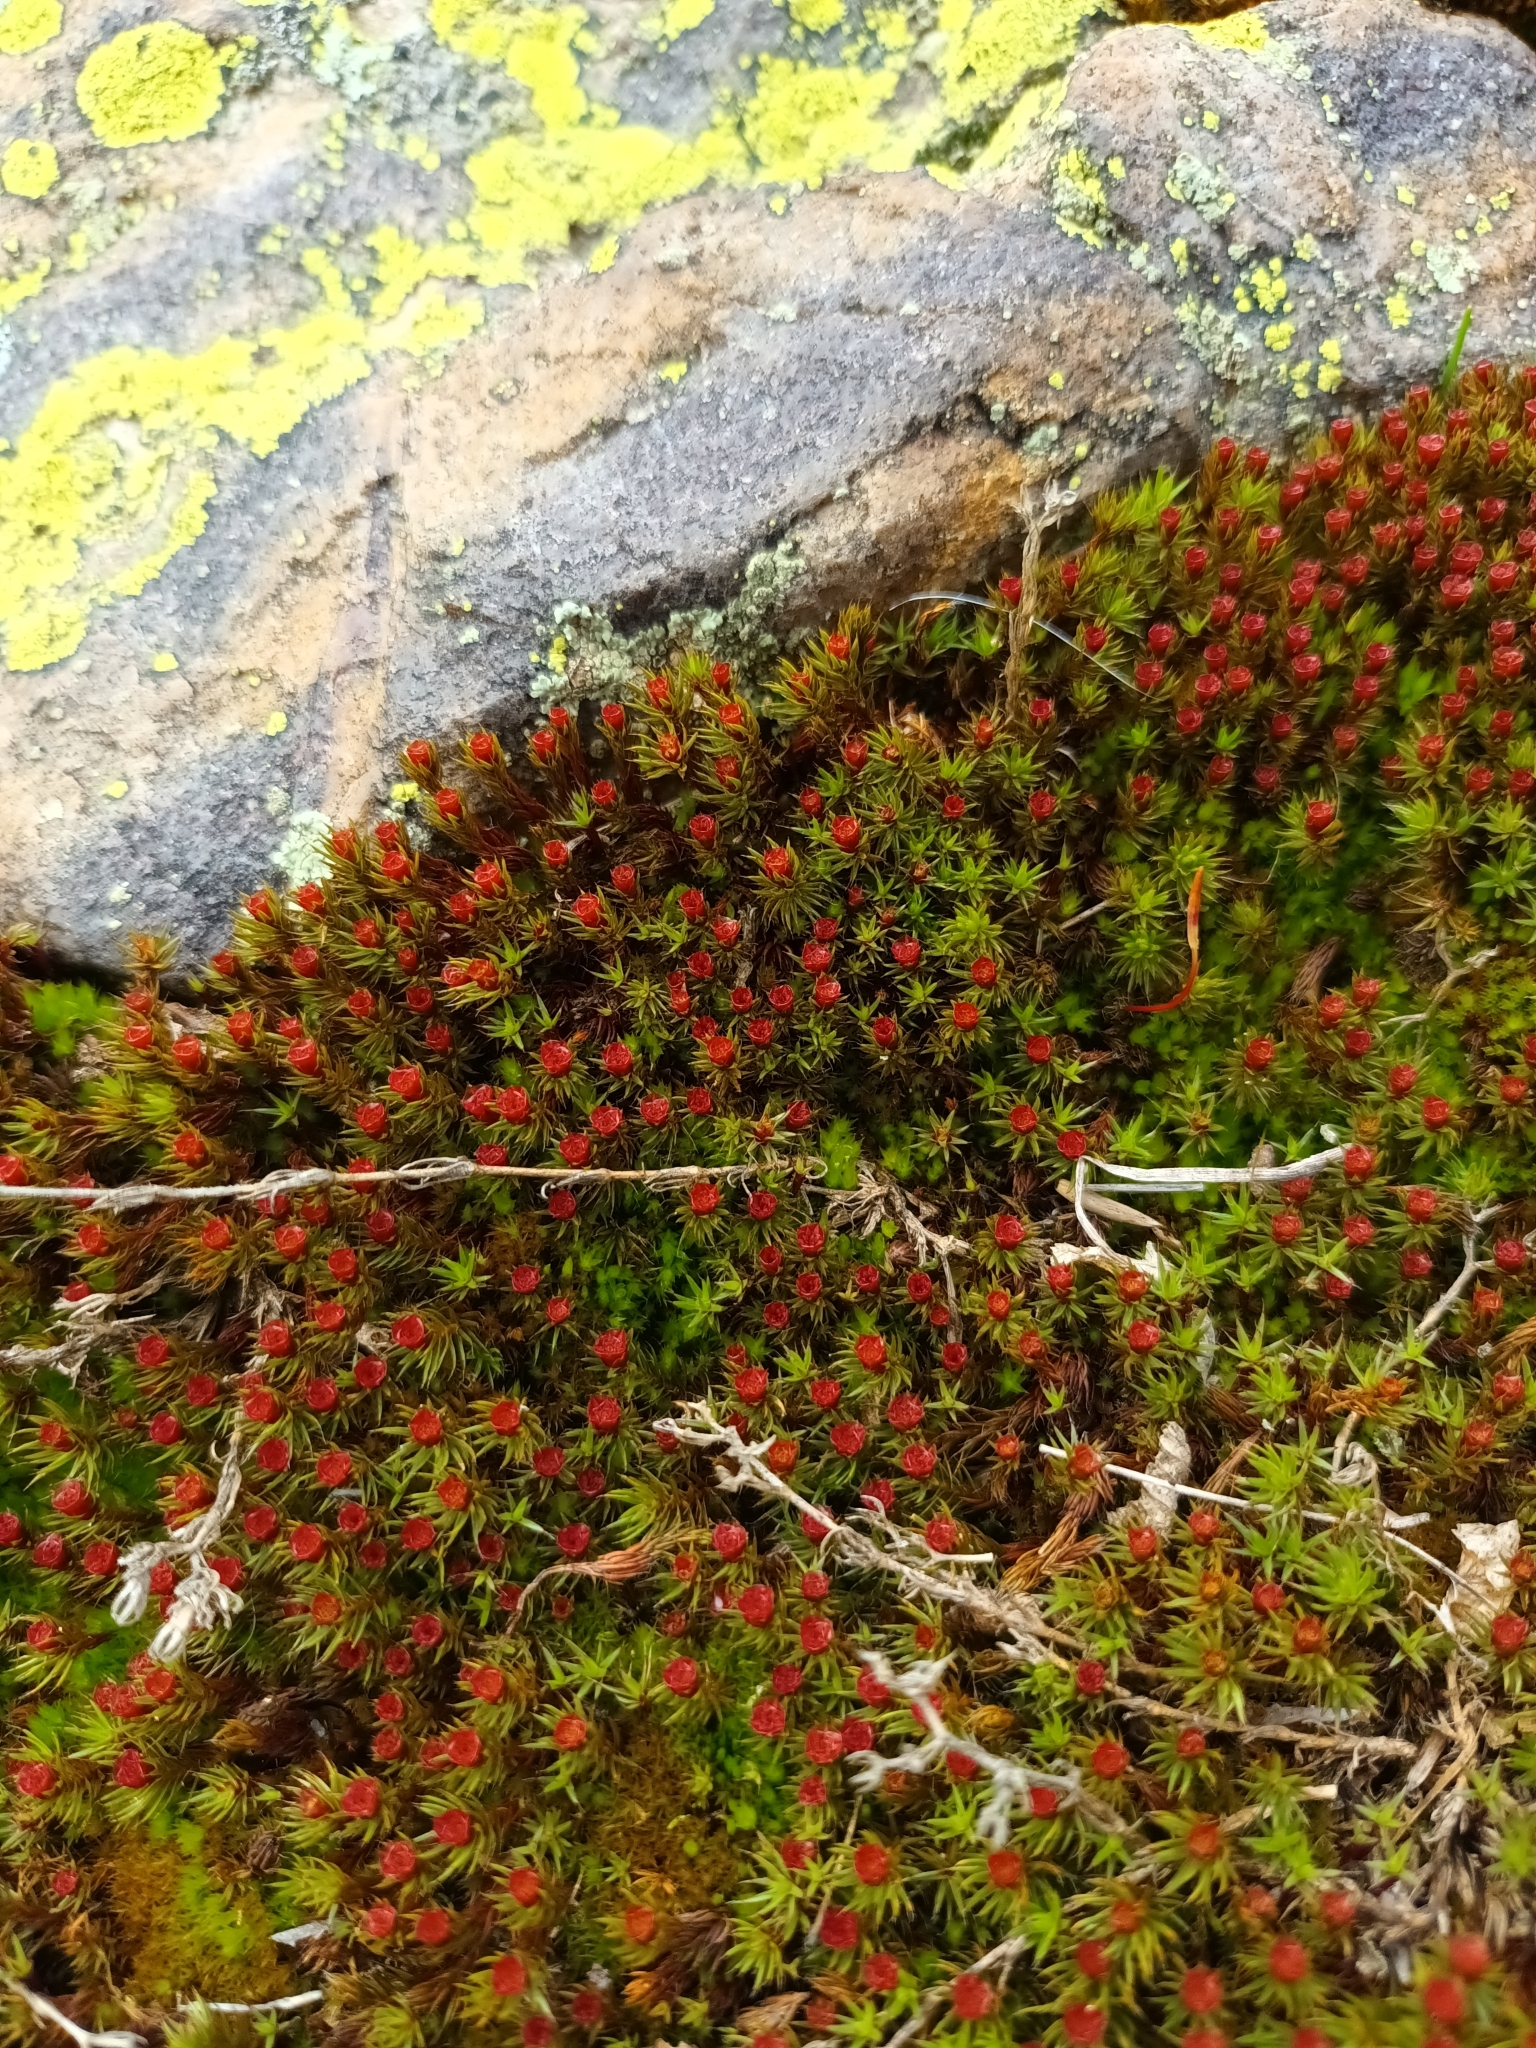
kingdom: Plantae
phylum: Bryophyta
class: Polytrichopsida
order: Polytrichales
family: Polytrichaceae
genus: Polytrichum
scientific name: Polytrichum piliferum
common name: Bristly haircap
